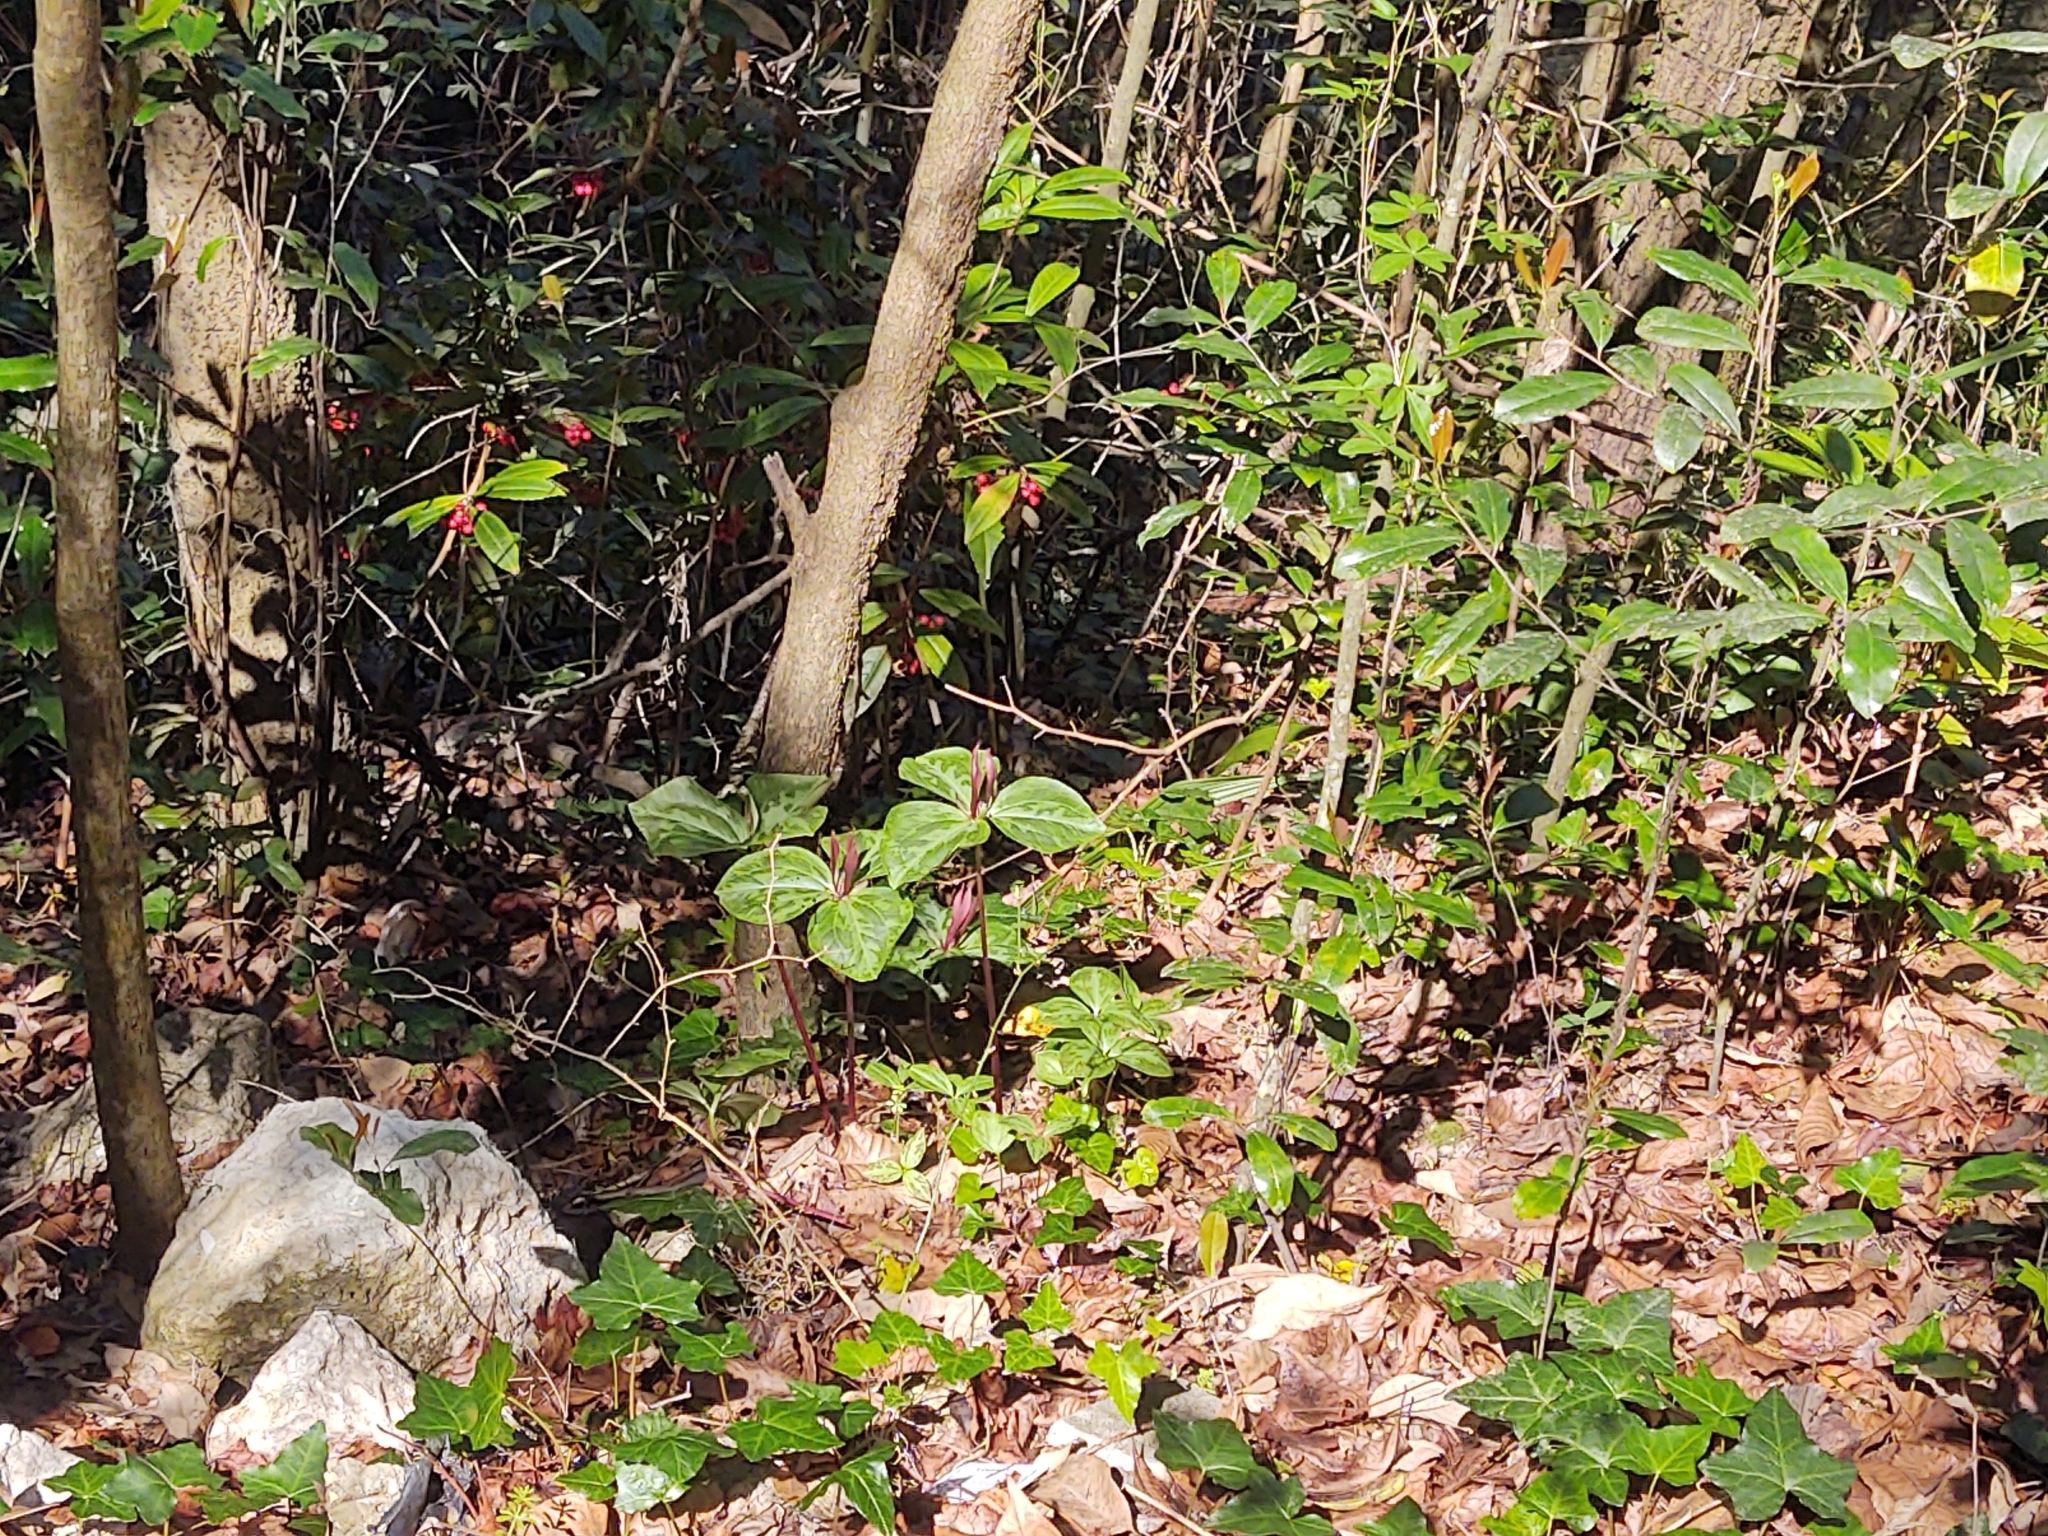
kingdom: Plantae
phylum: Tracheophyta
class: Liliopsida
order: Liliales
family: Melanthiaceae
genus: Trillium
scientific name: Trillium maculatum
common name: Mottled trillium
